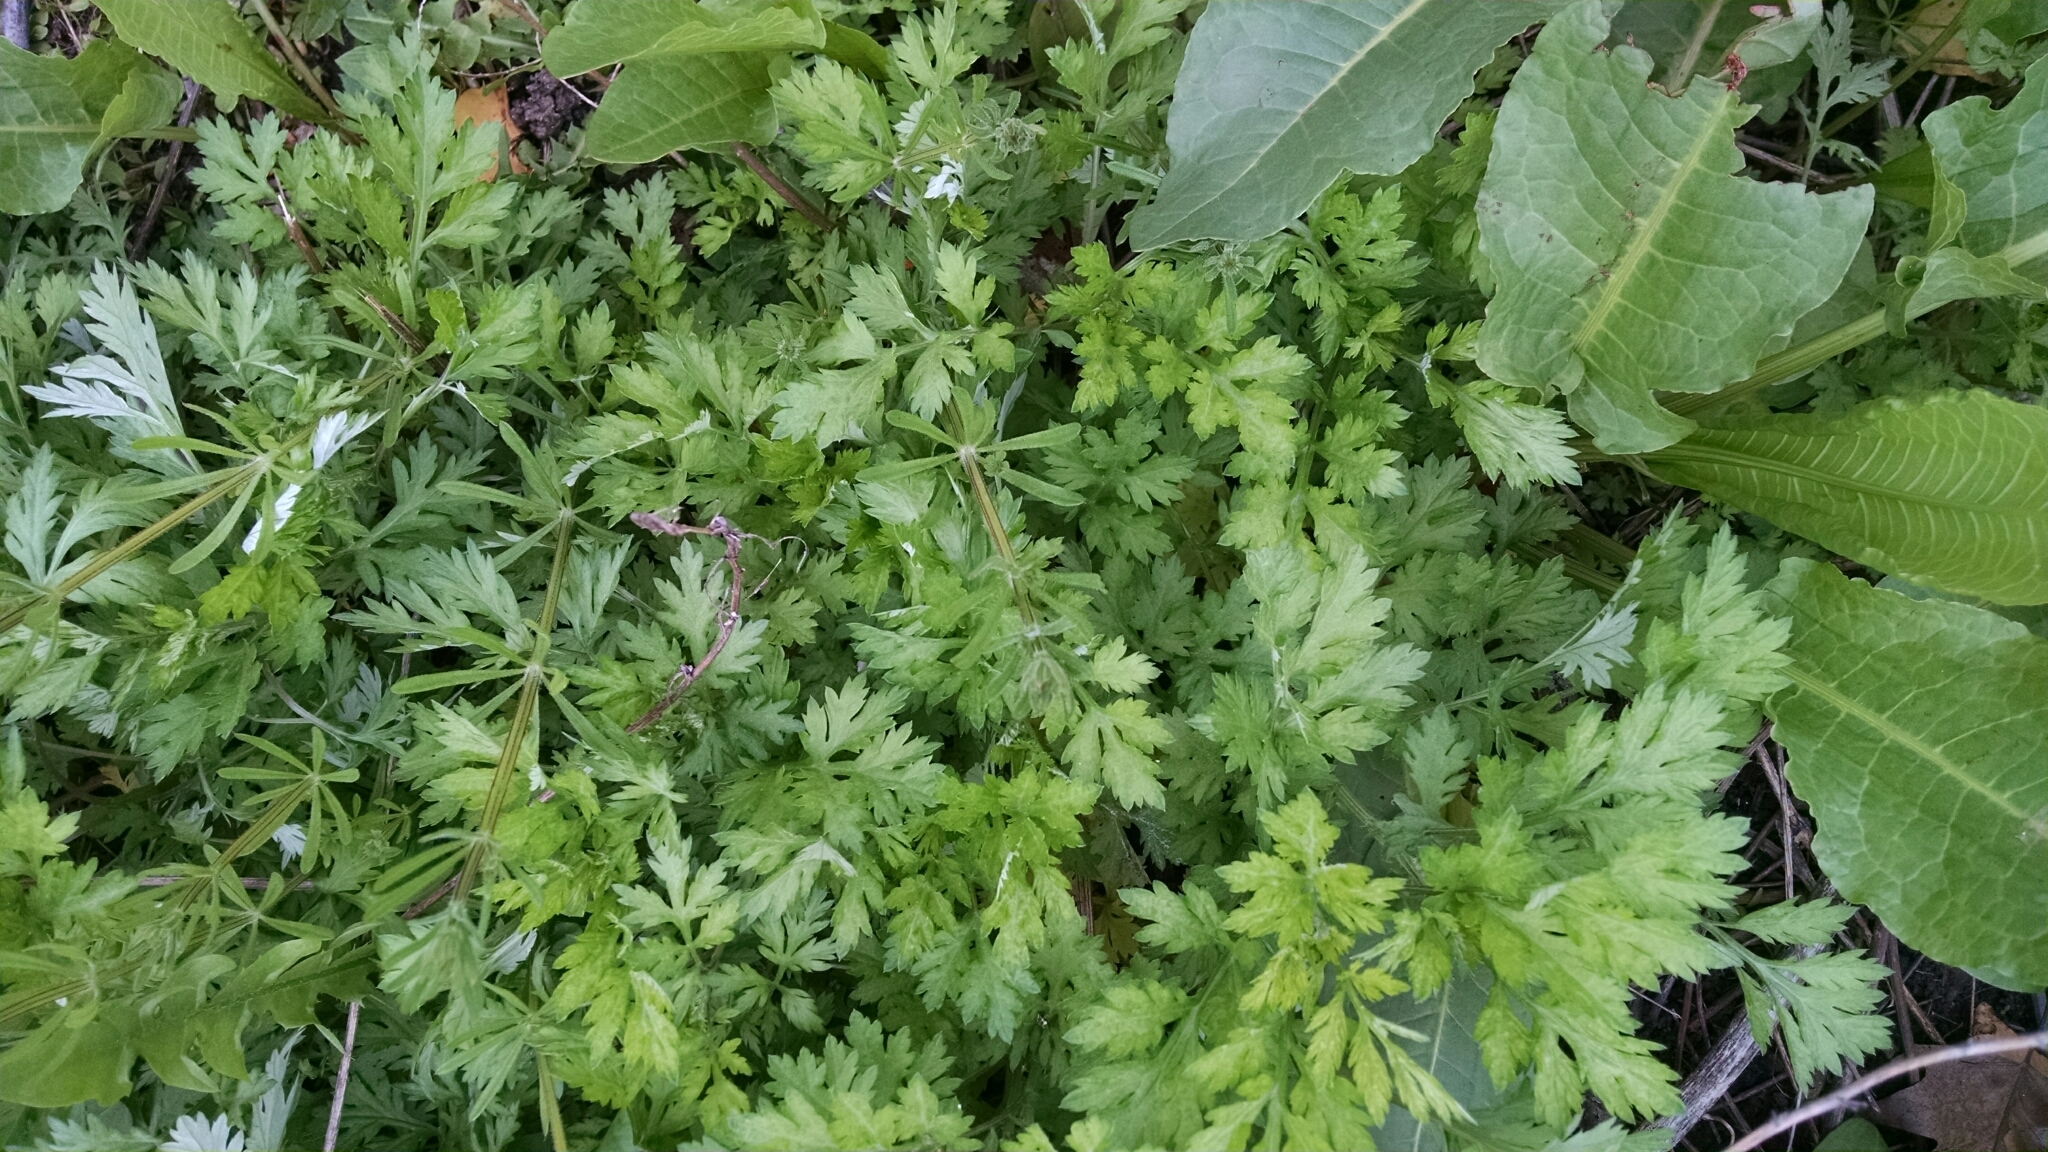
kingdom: Plantae
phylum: Tracheophyta
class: Magnoliopsida
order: Asterales
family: Asteraceae
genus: Artemisia
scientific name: Artemisia vulgaris
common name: Mugwort
